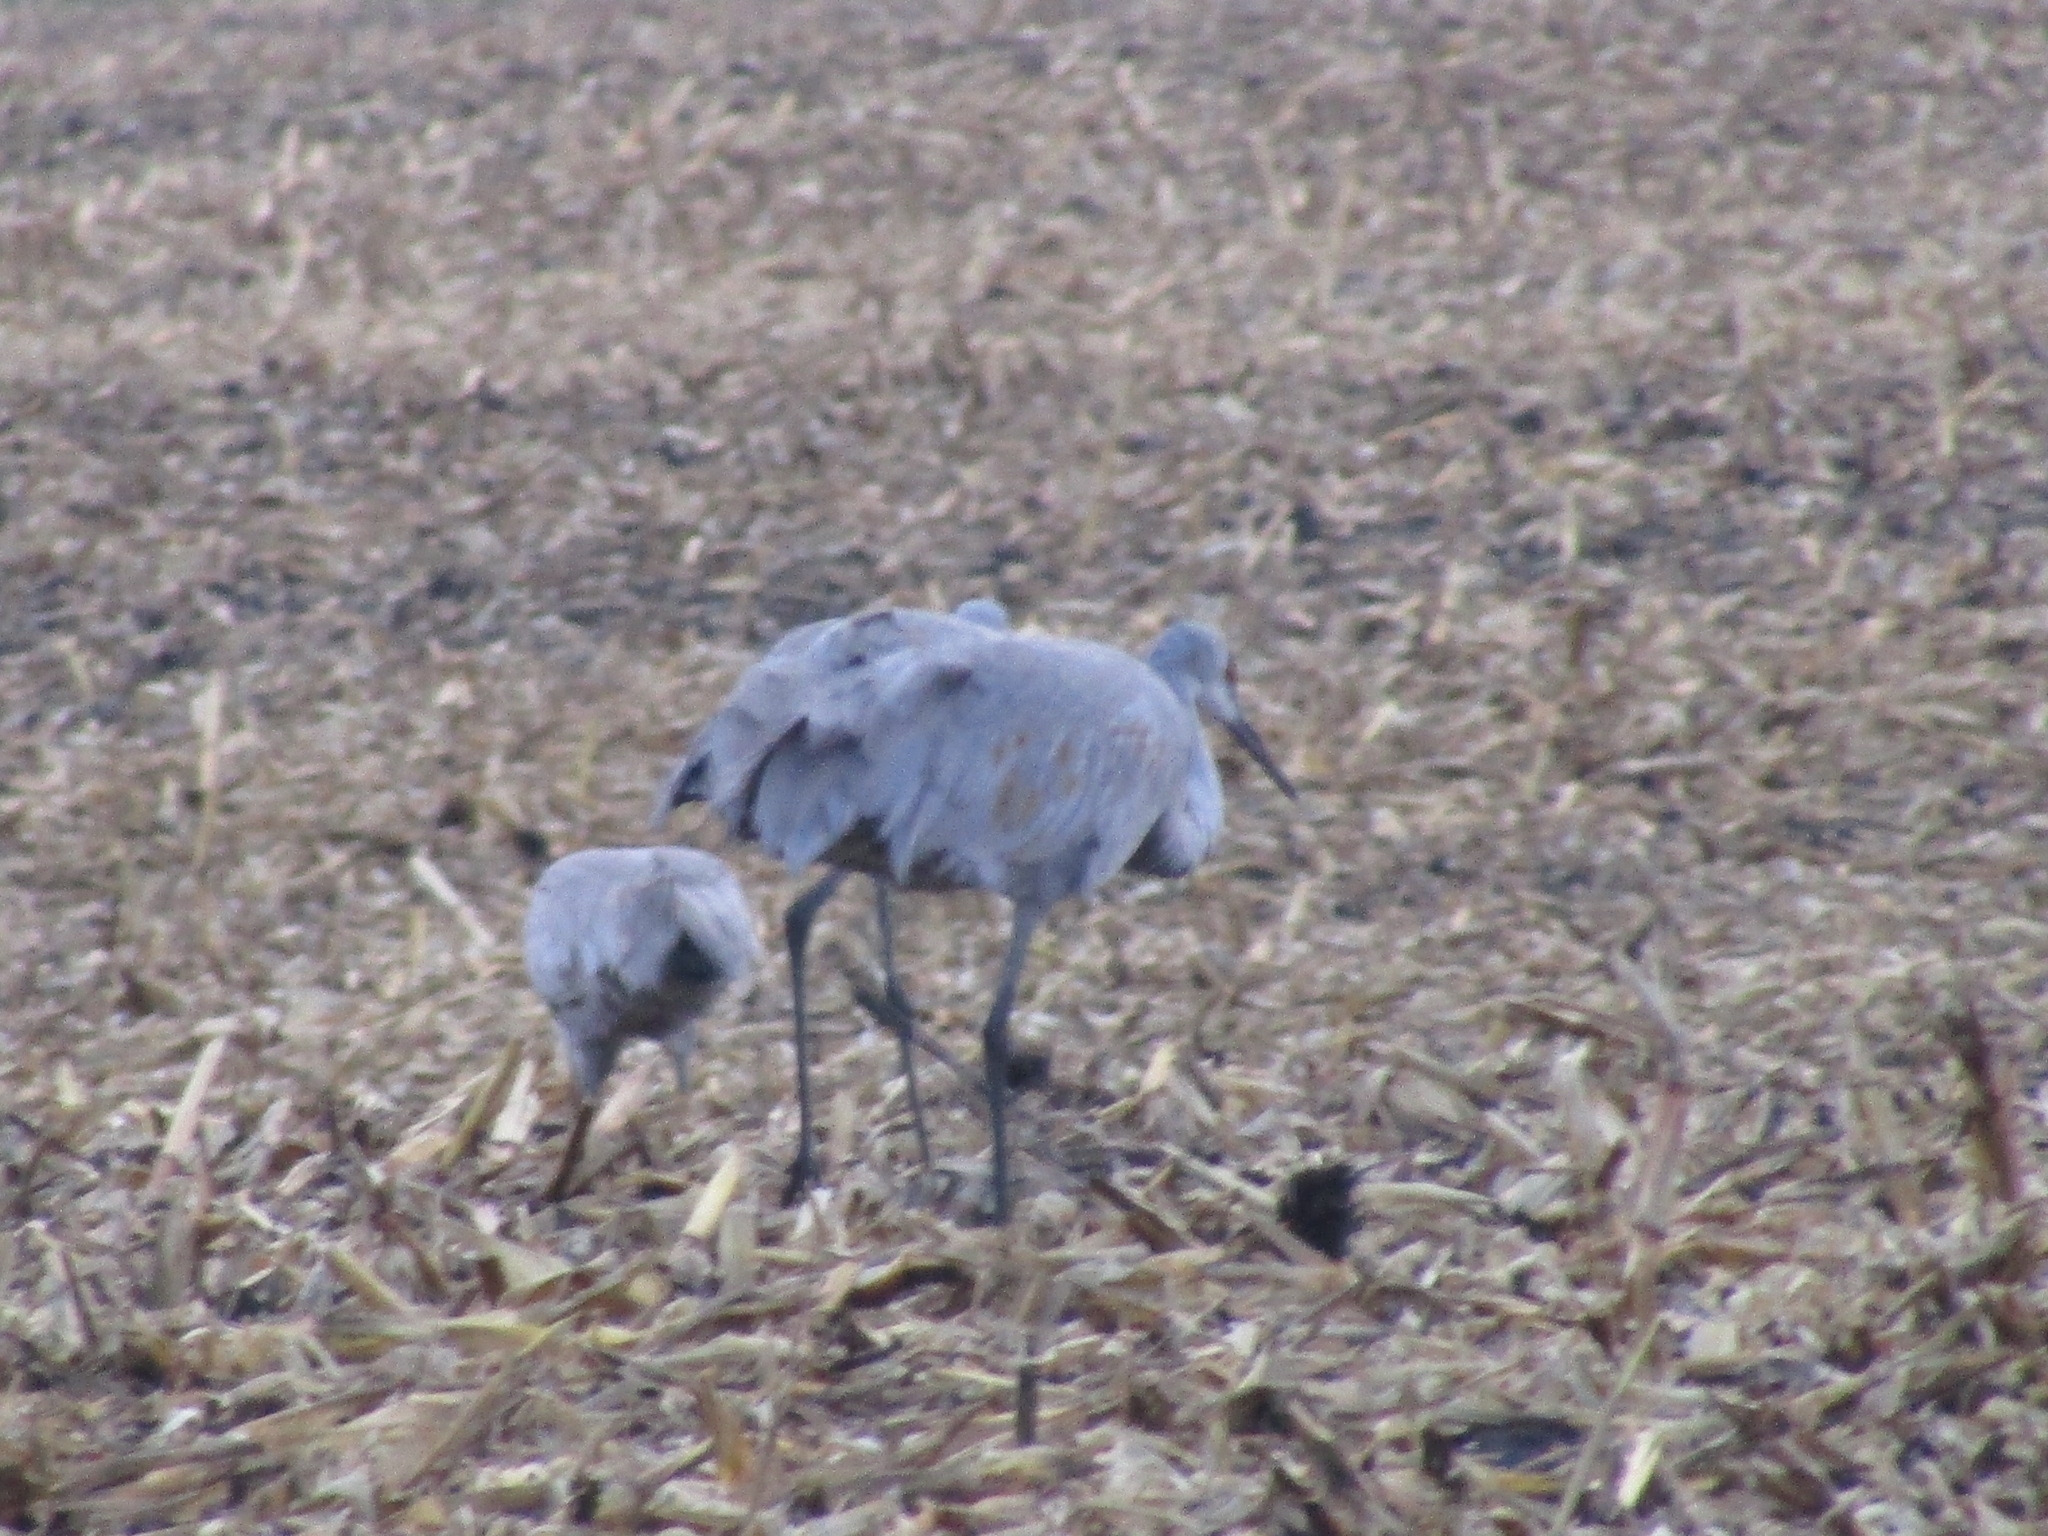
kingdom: Animalia
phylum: Chordata
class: Aves
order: Gruiformes
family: Gruidae
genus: Grus
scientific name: Grus canadensis
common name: Sandhill crane
